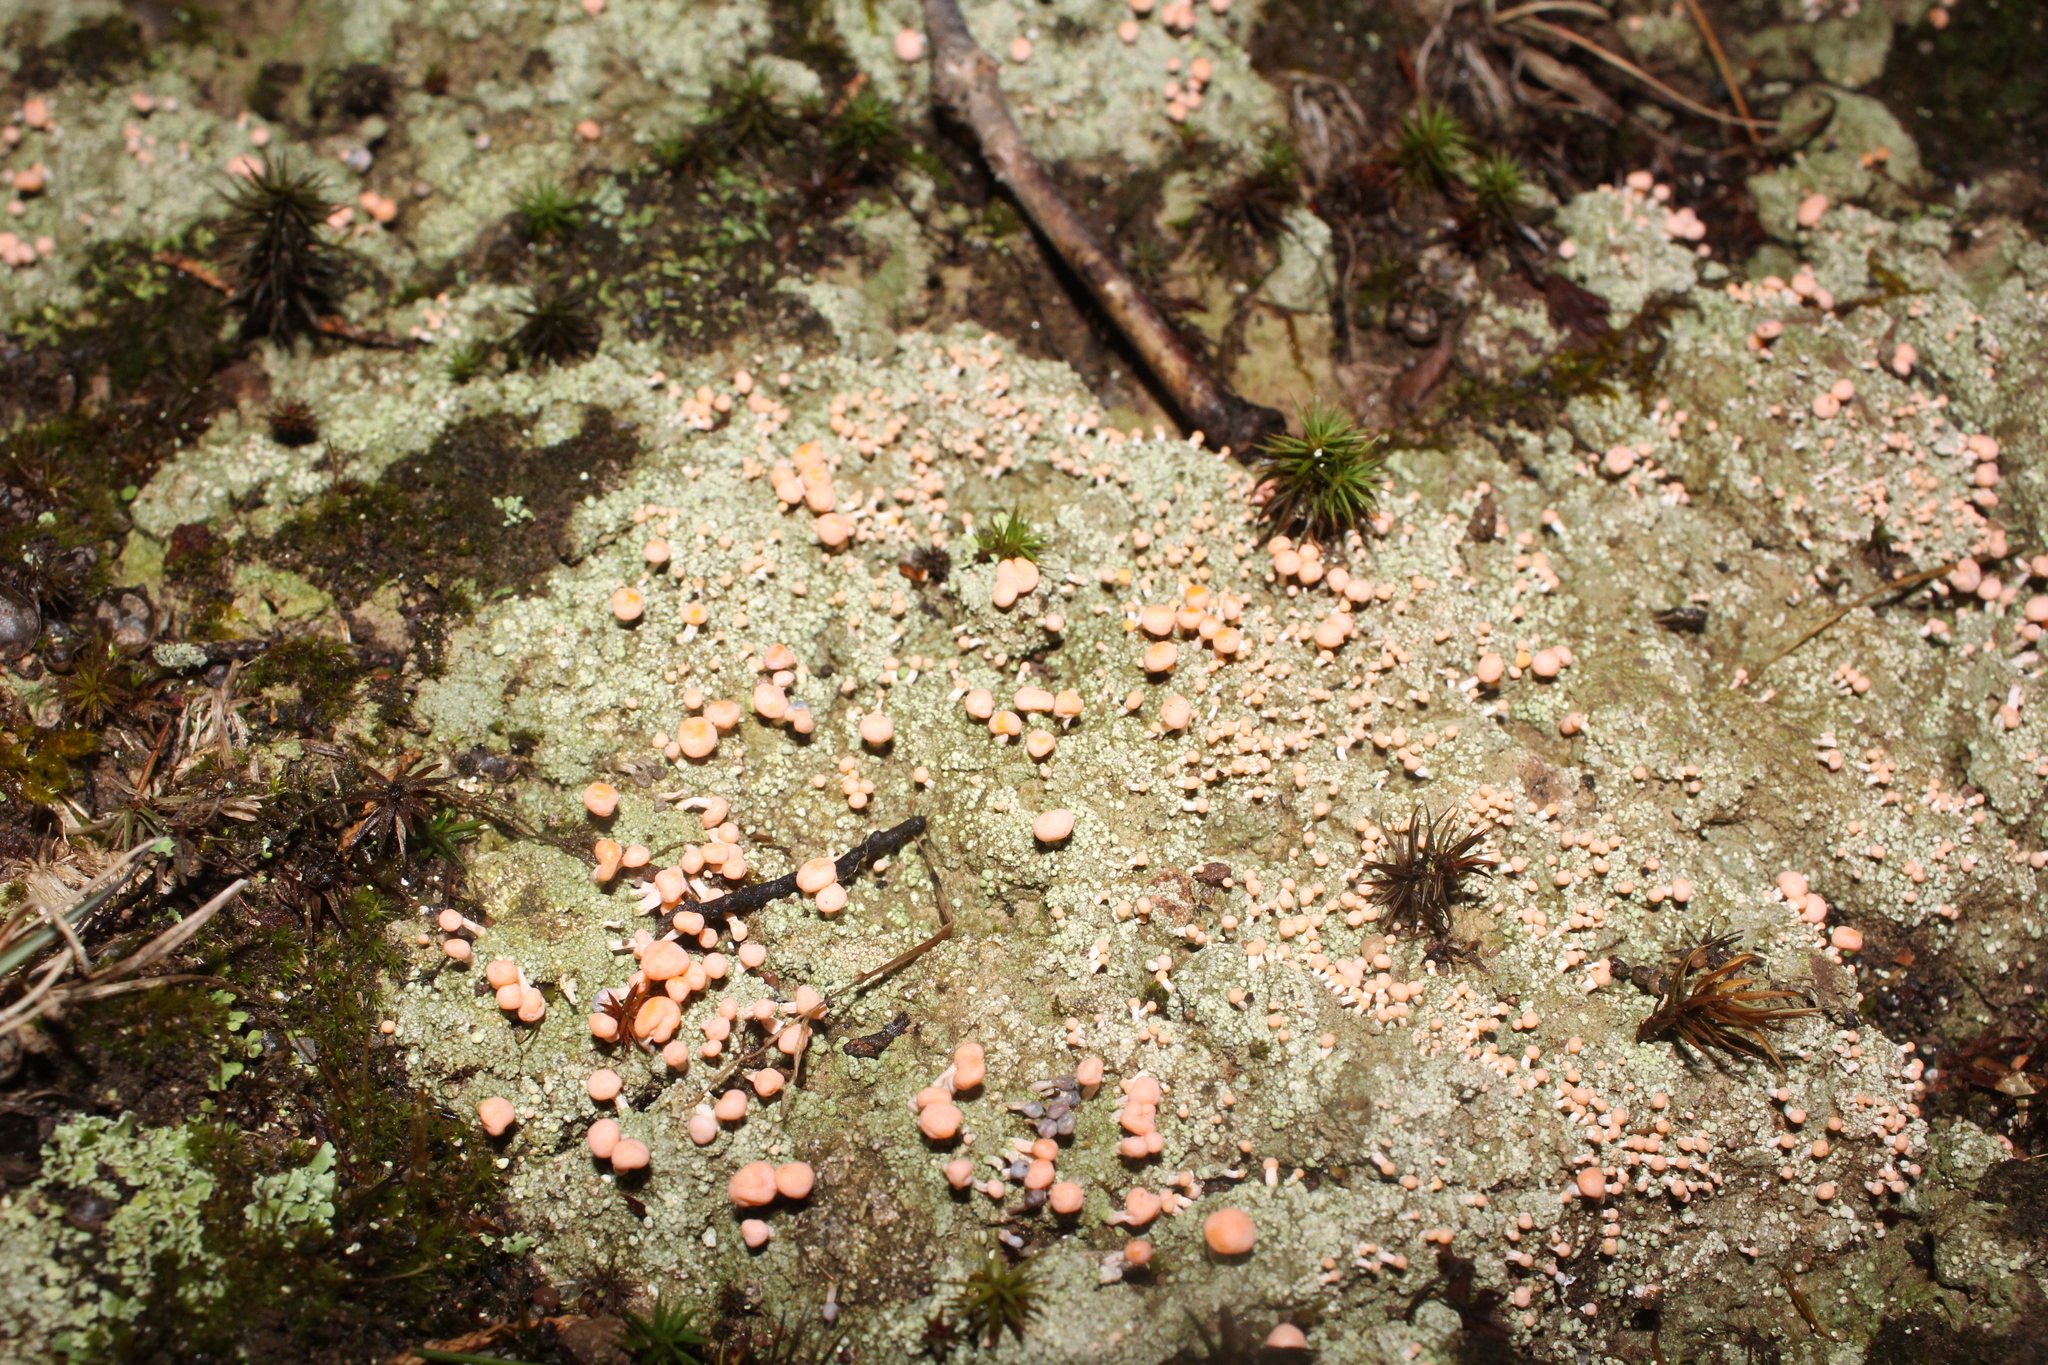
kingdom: Fungi
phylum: Ascomycota
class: Lecanoromycetes
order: Pertusariales
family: Icmadophilaceae
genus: Dibaeis
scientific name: Dibaeis baeomyces
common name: Pink earth lichen
